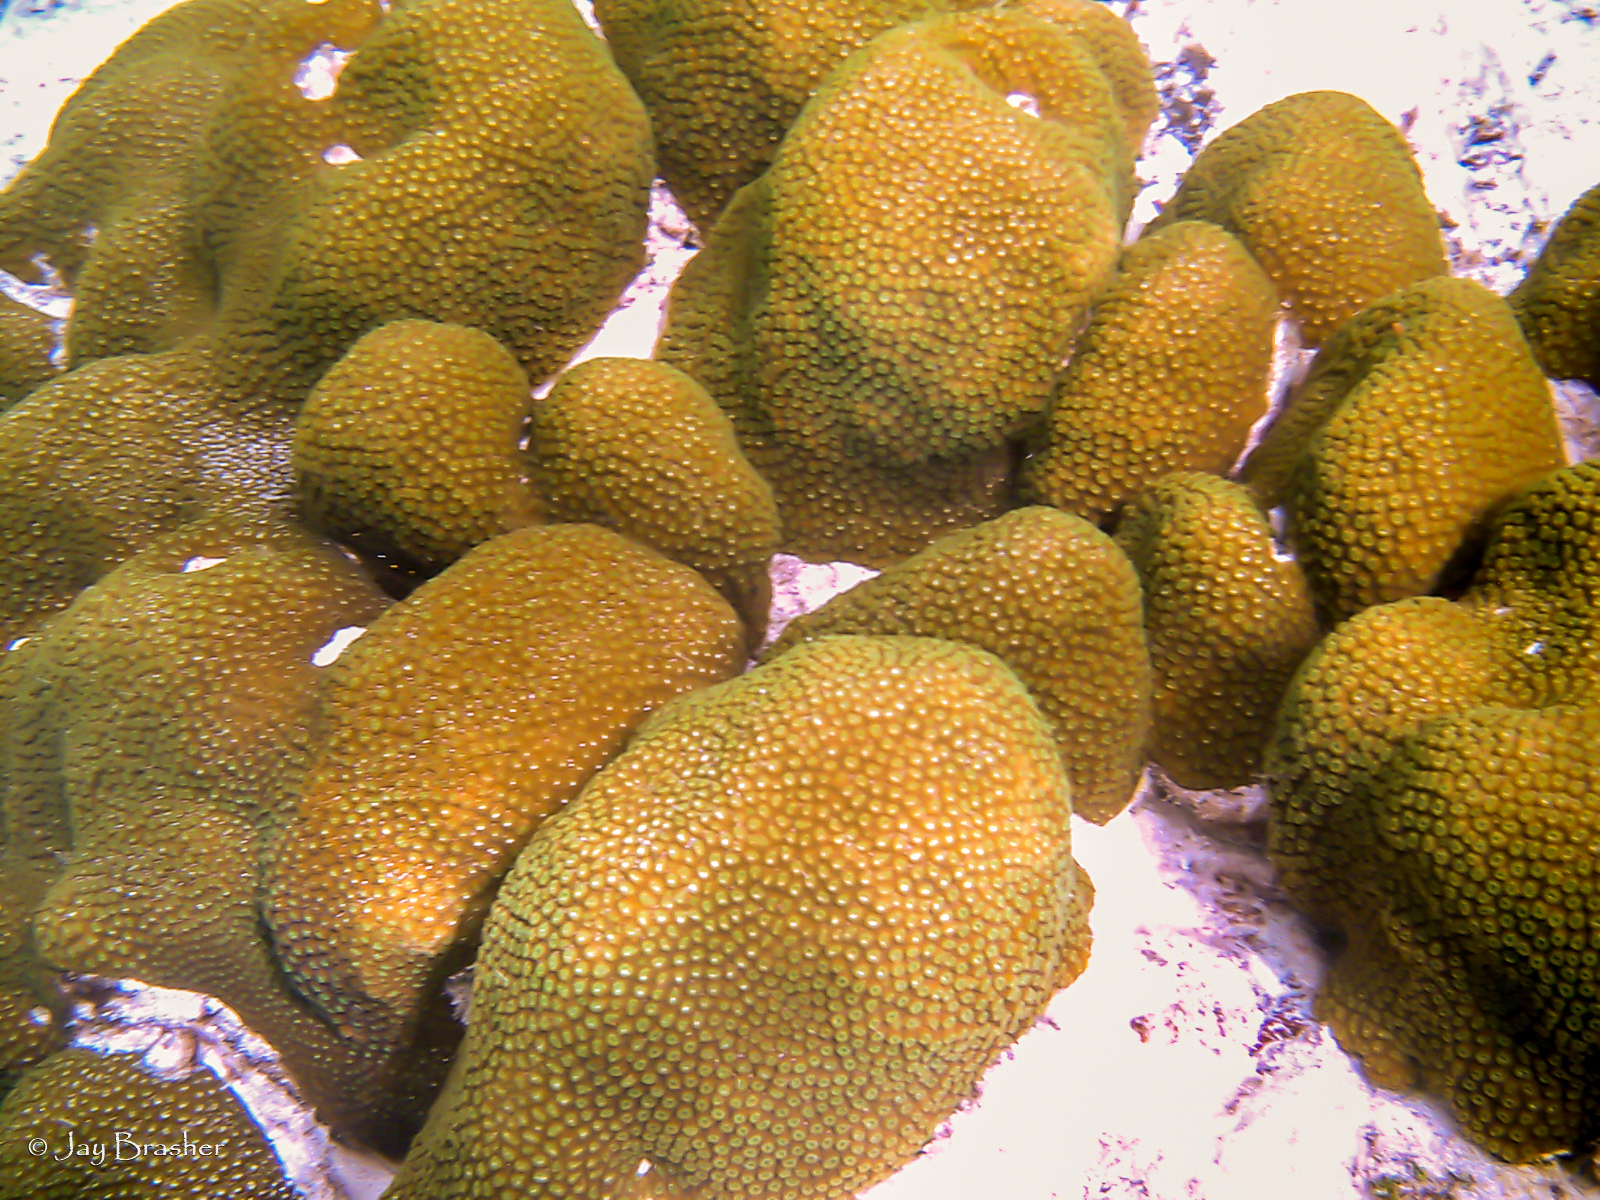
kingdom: Animalia
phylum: Cnidaria
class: Anthozoa
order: Scleractinia
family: Merulinidae
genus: Orbicella
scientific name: Orbicella annularis
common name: Boulder star coral
